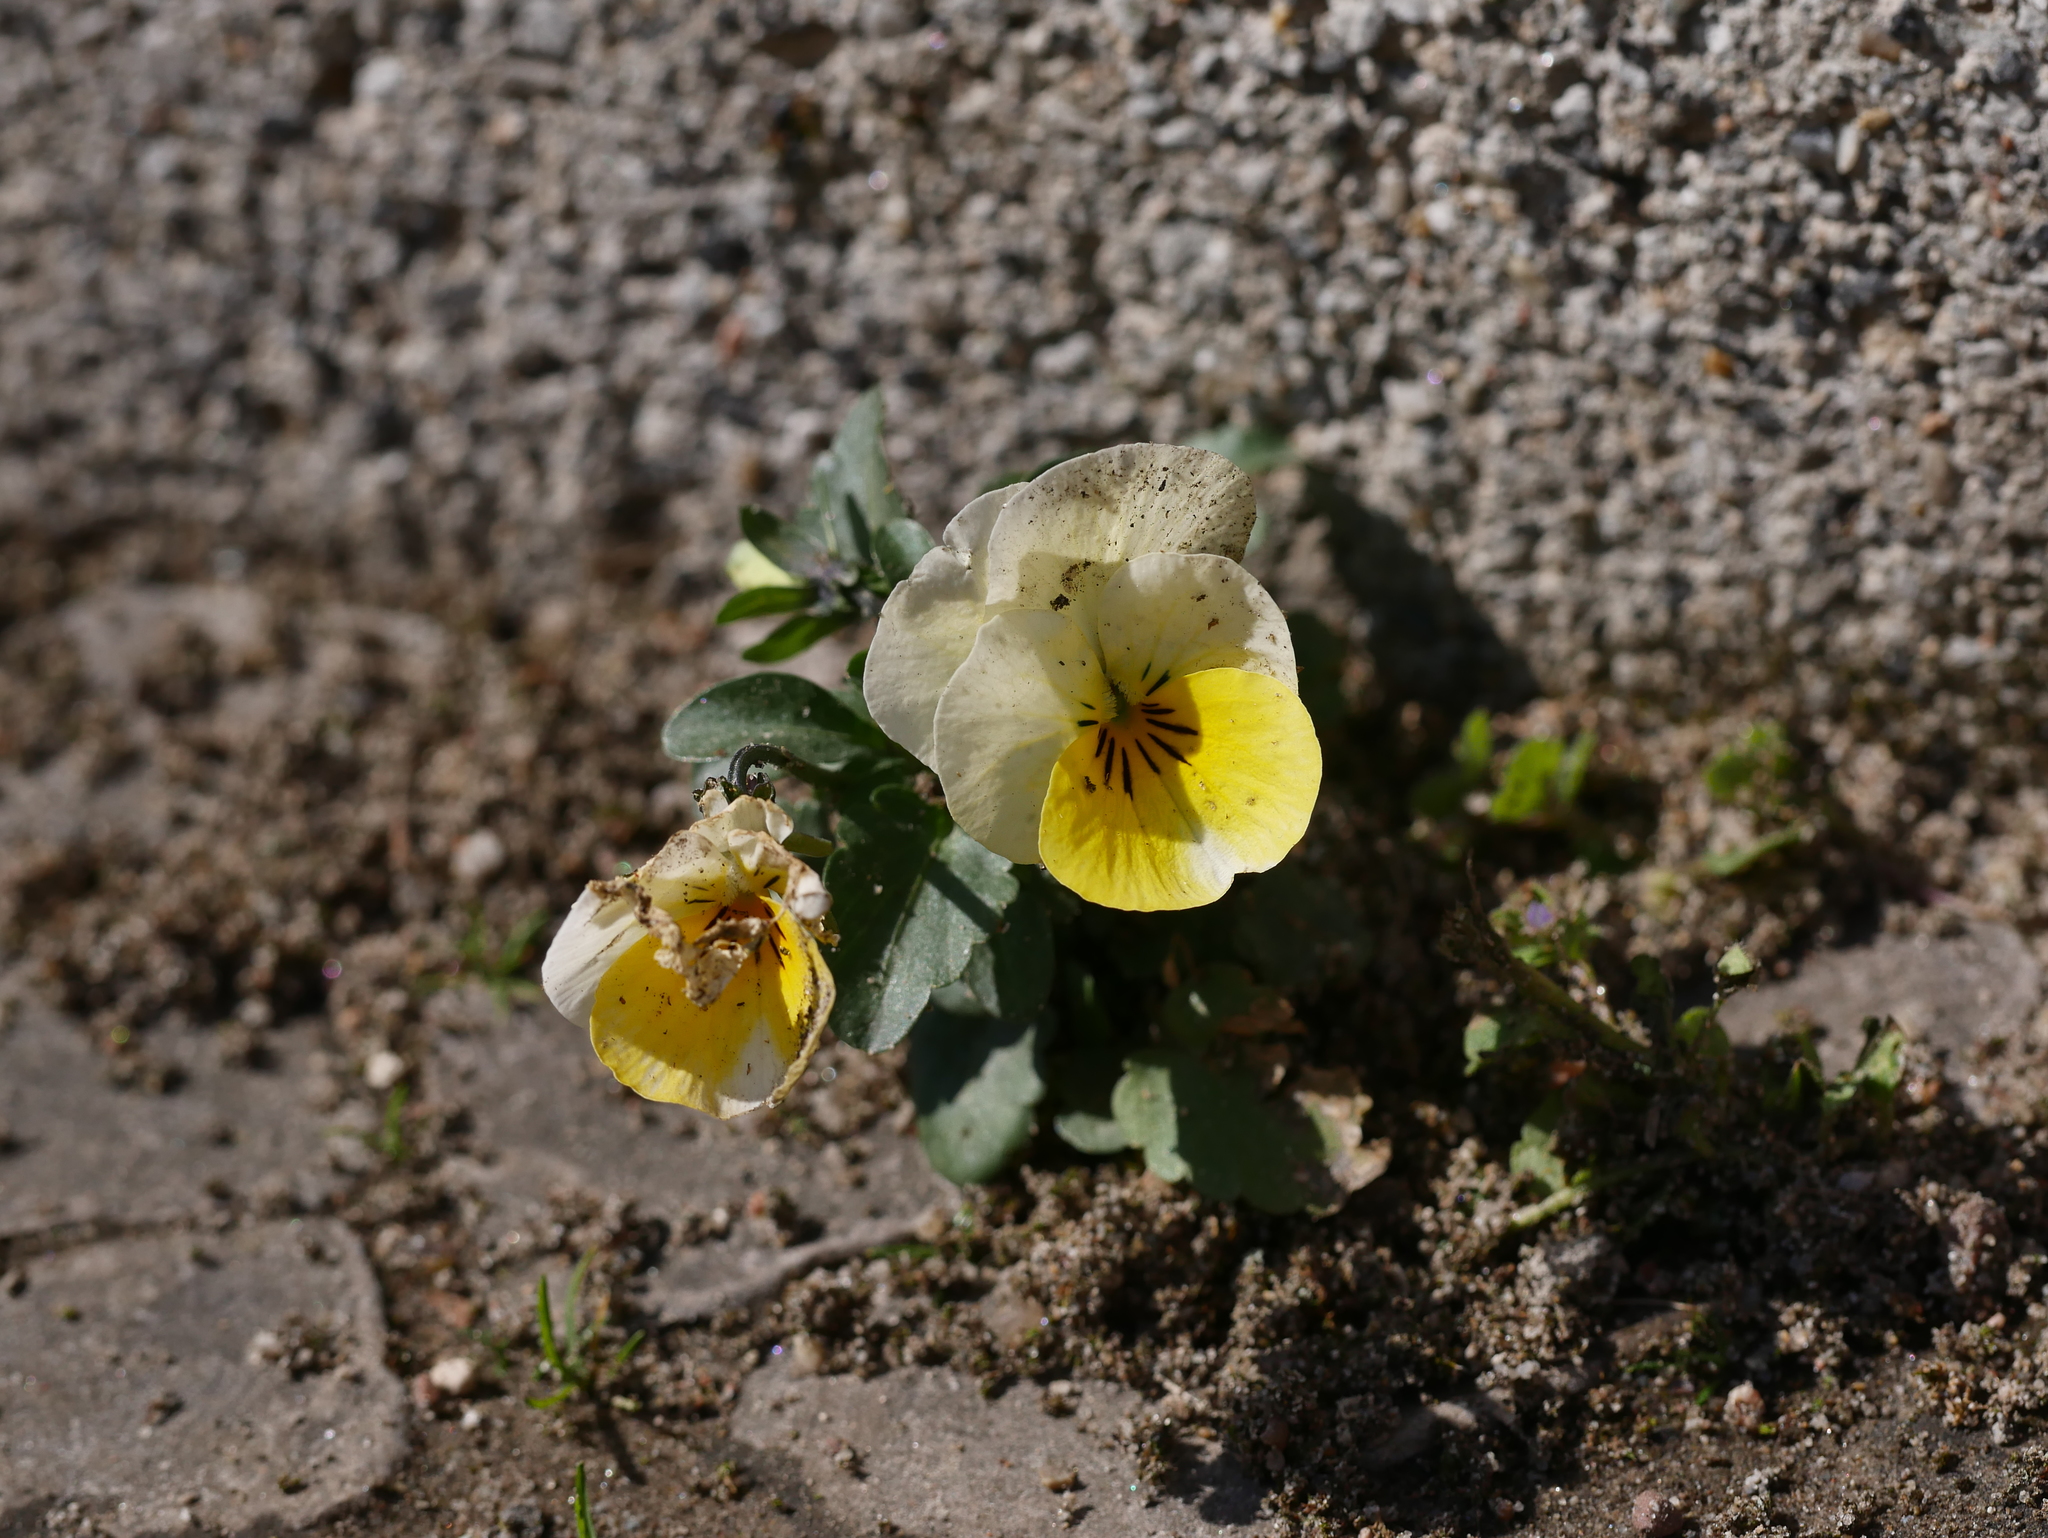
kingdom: Plantae
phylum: Tracheophyta
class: Magnoliopsida
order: Malpighiales
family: Violaceae
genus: Viola
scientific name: Viola wittrockiana
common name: Garden pansy
